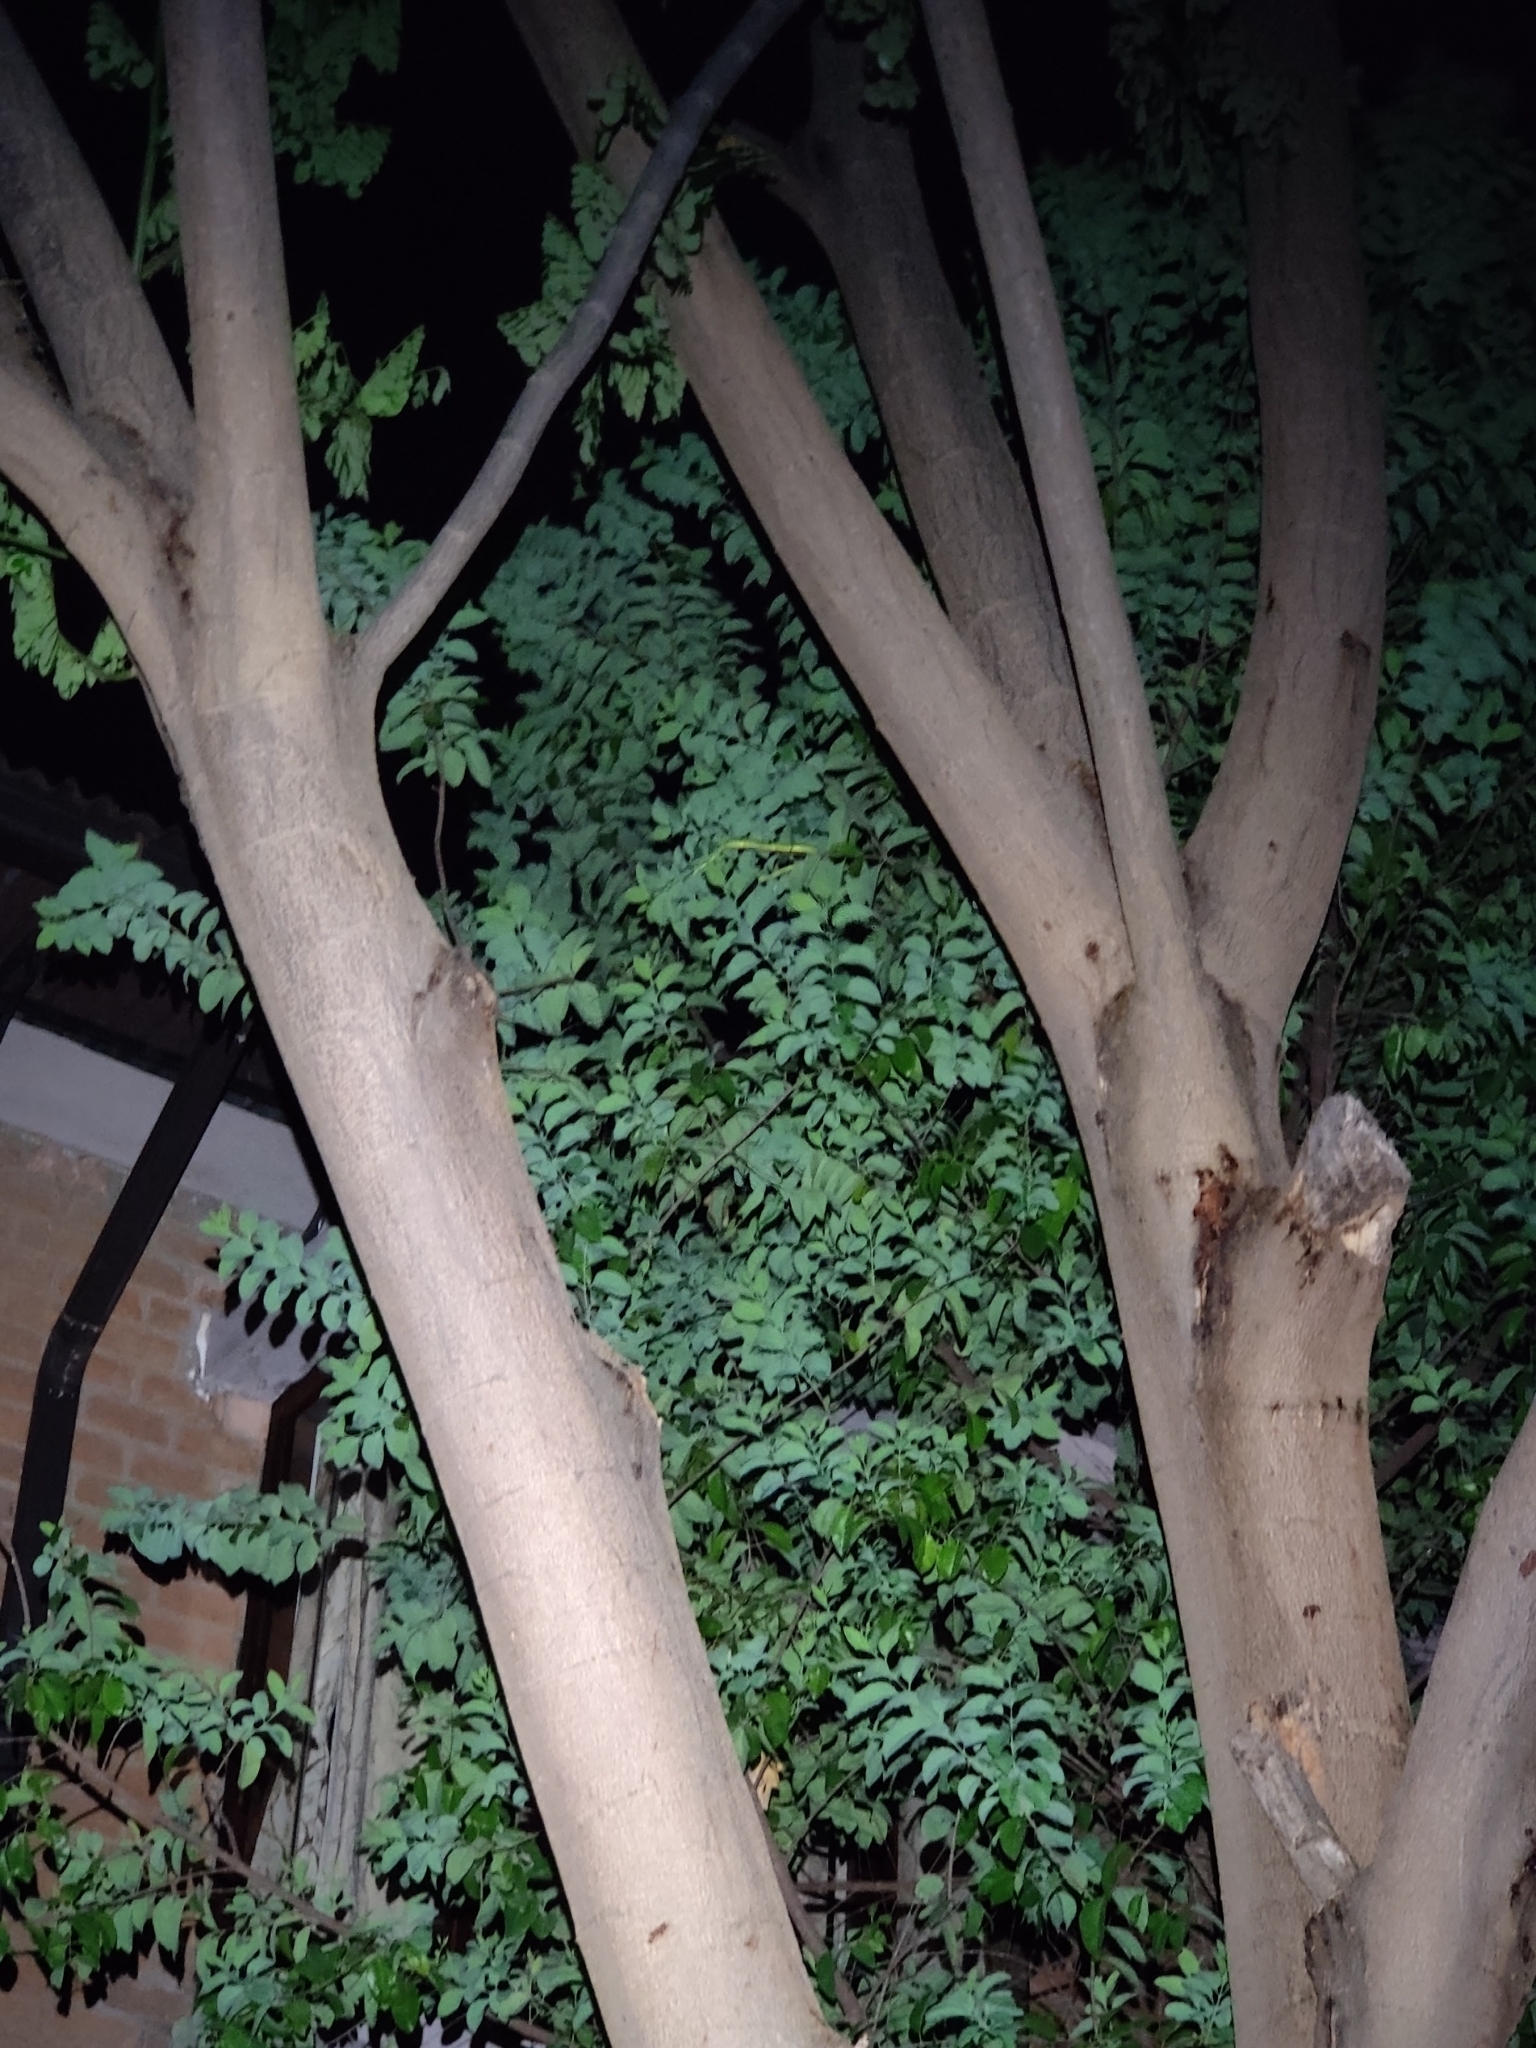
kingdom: Animalia
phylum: Chordata
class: Squamata
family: Colubridae
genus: Ahaetulla
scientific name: Ahaetulla oxyrhyncha
